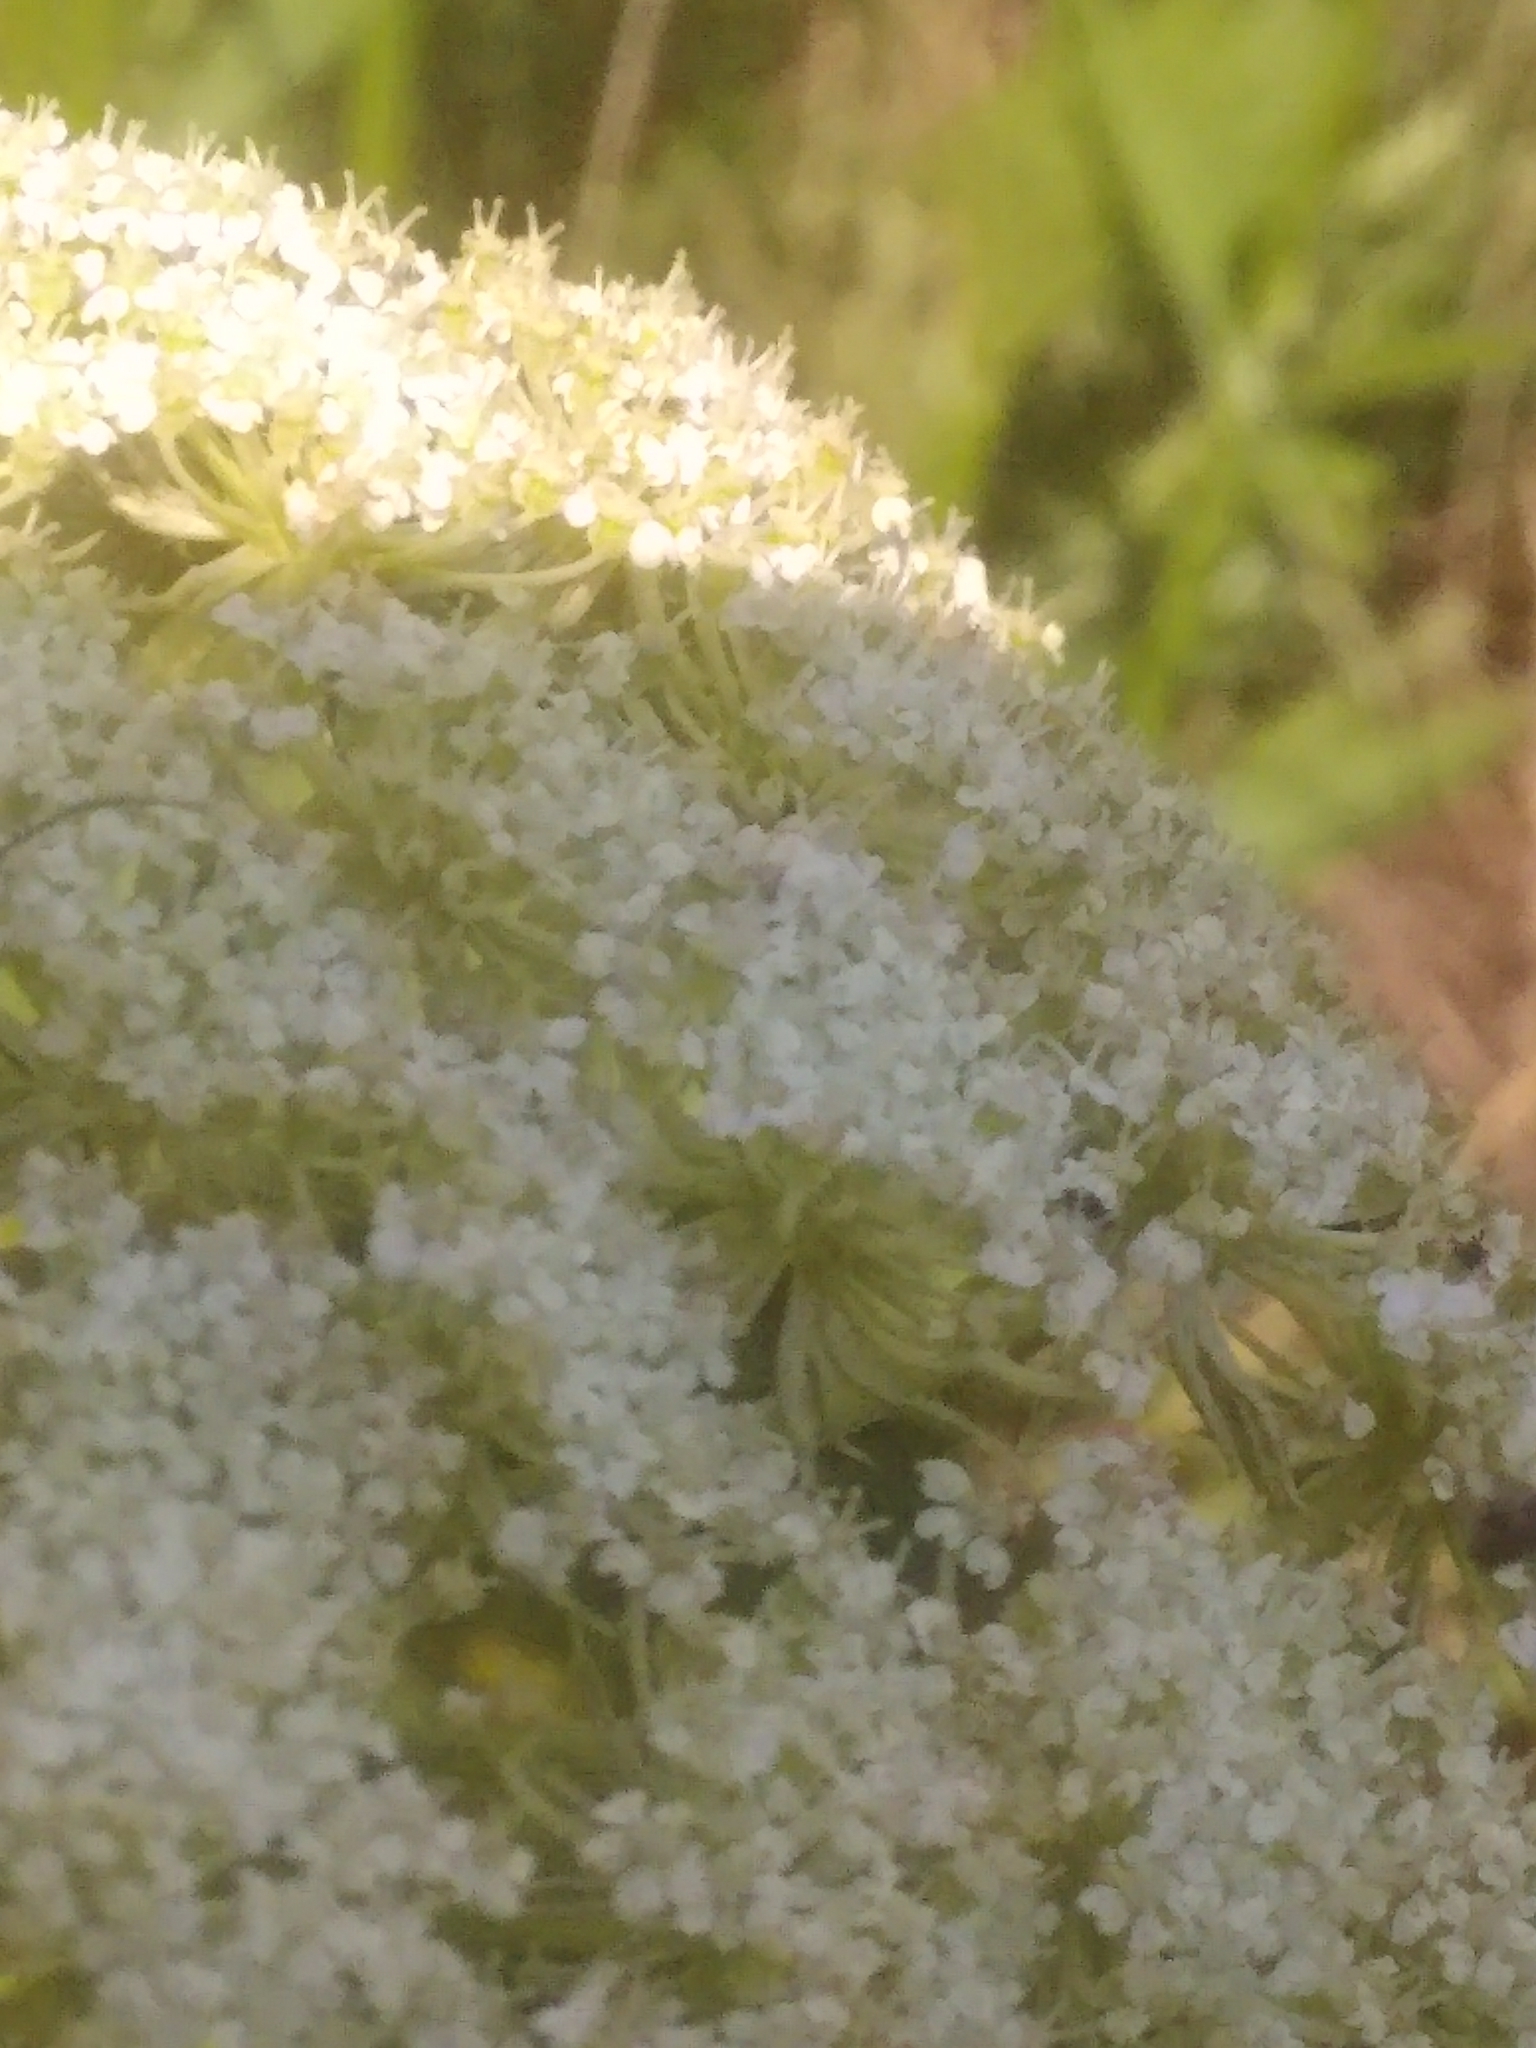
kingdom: Animalia
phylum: Arthropoda
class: Insecta
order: Coleoptera
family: Cantharidae
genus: Chauliognathus
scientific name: Chauliognathus marginatus
